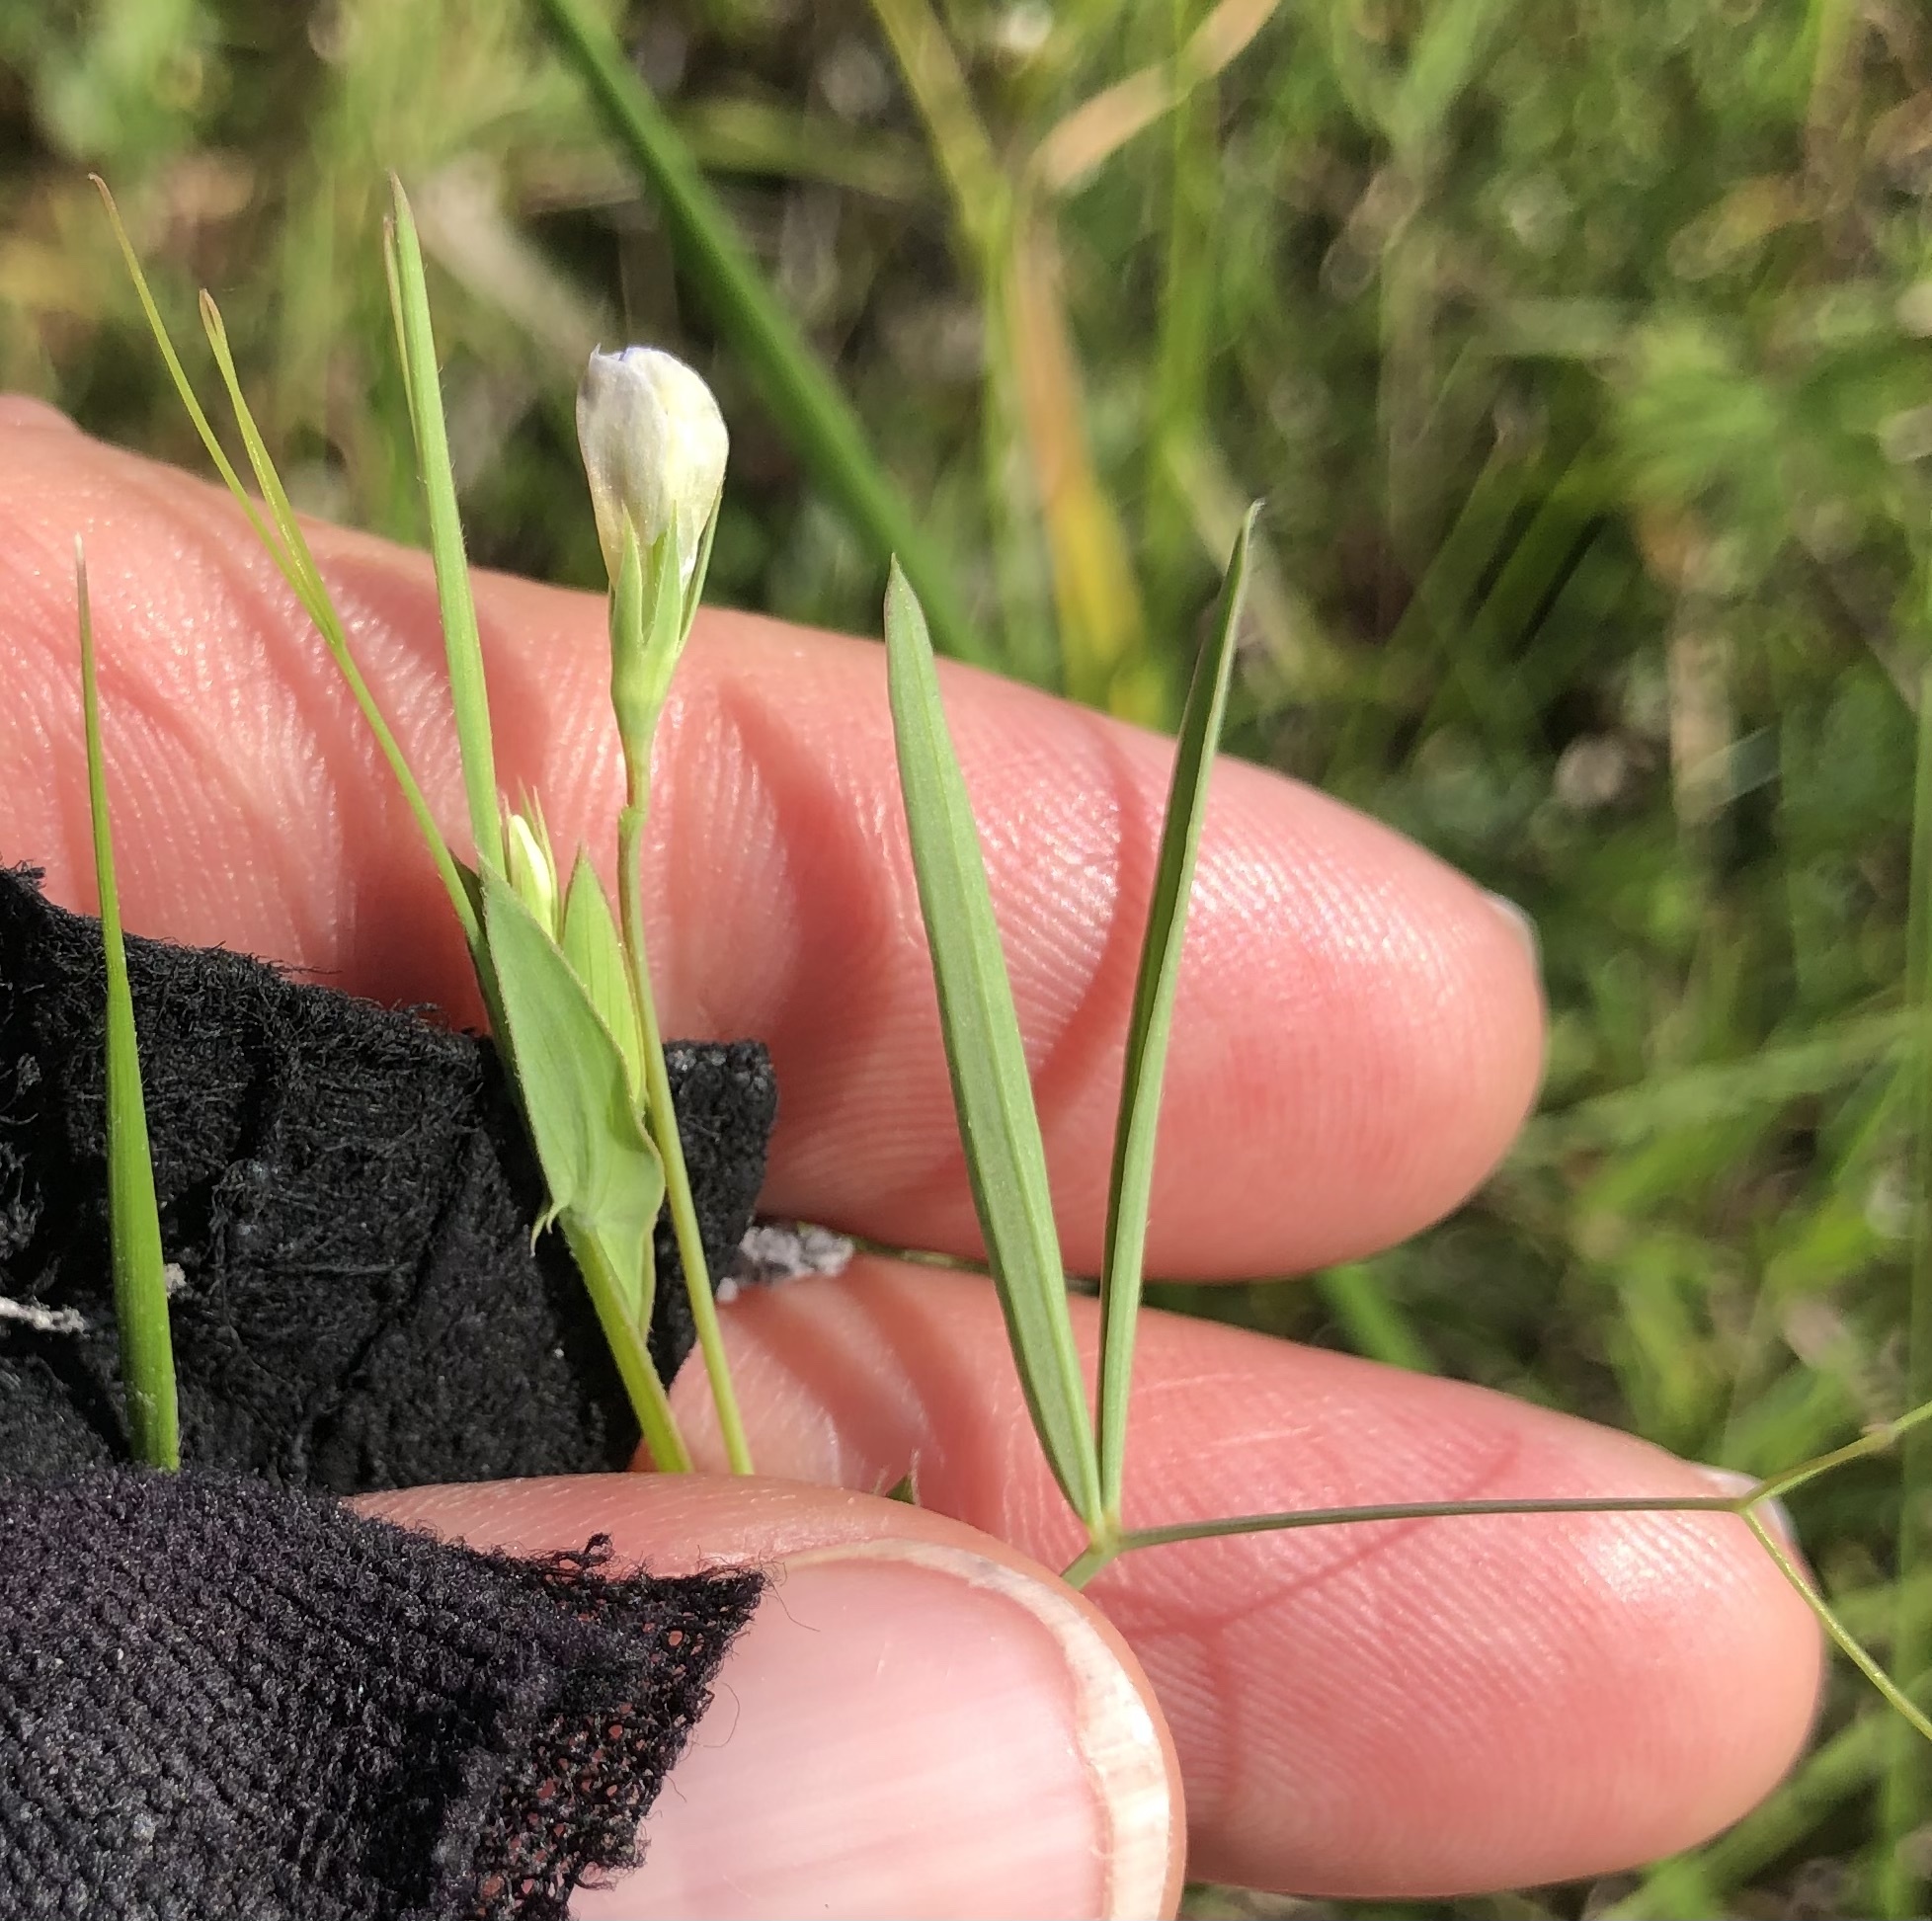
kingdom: Plantae
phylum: Tracheophyta
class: Magnoliopsida
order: Fabales
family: Fabaceae
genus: Lathyrus
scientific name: Lathyrus pusillus
